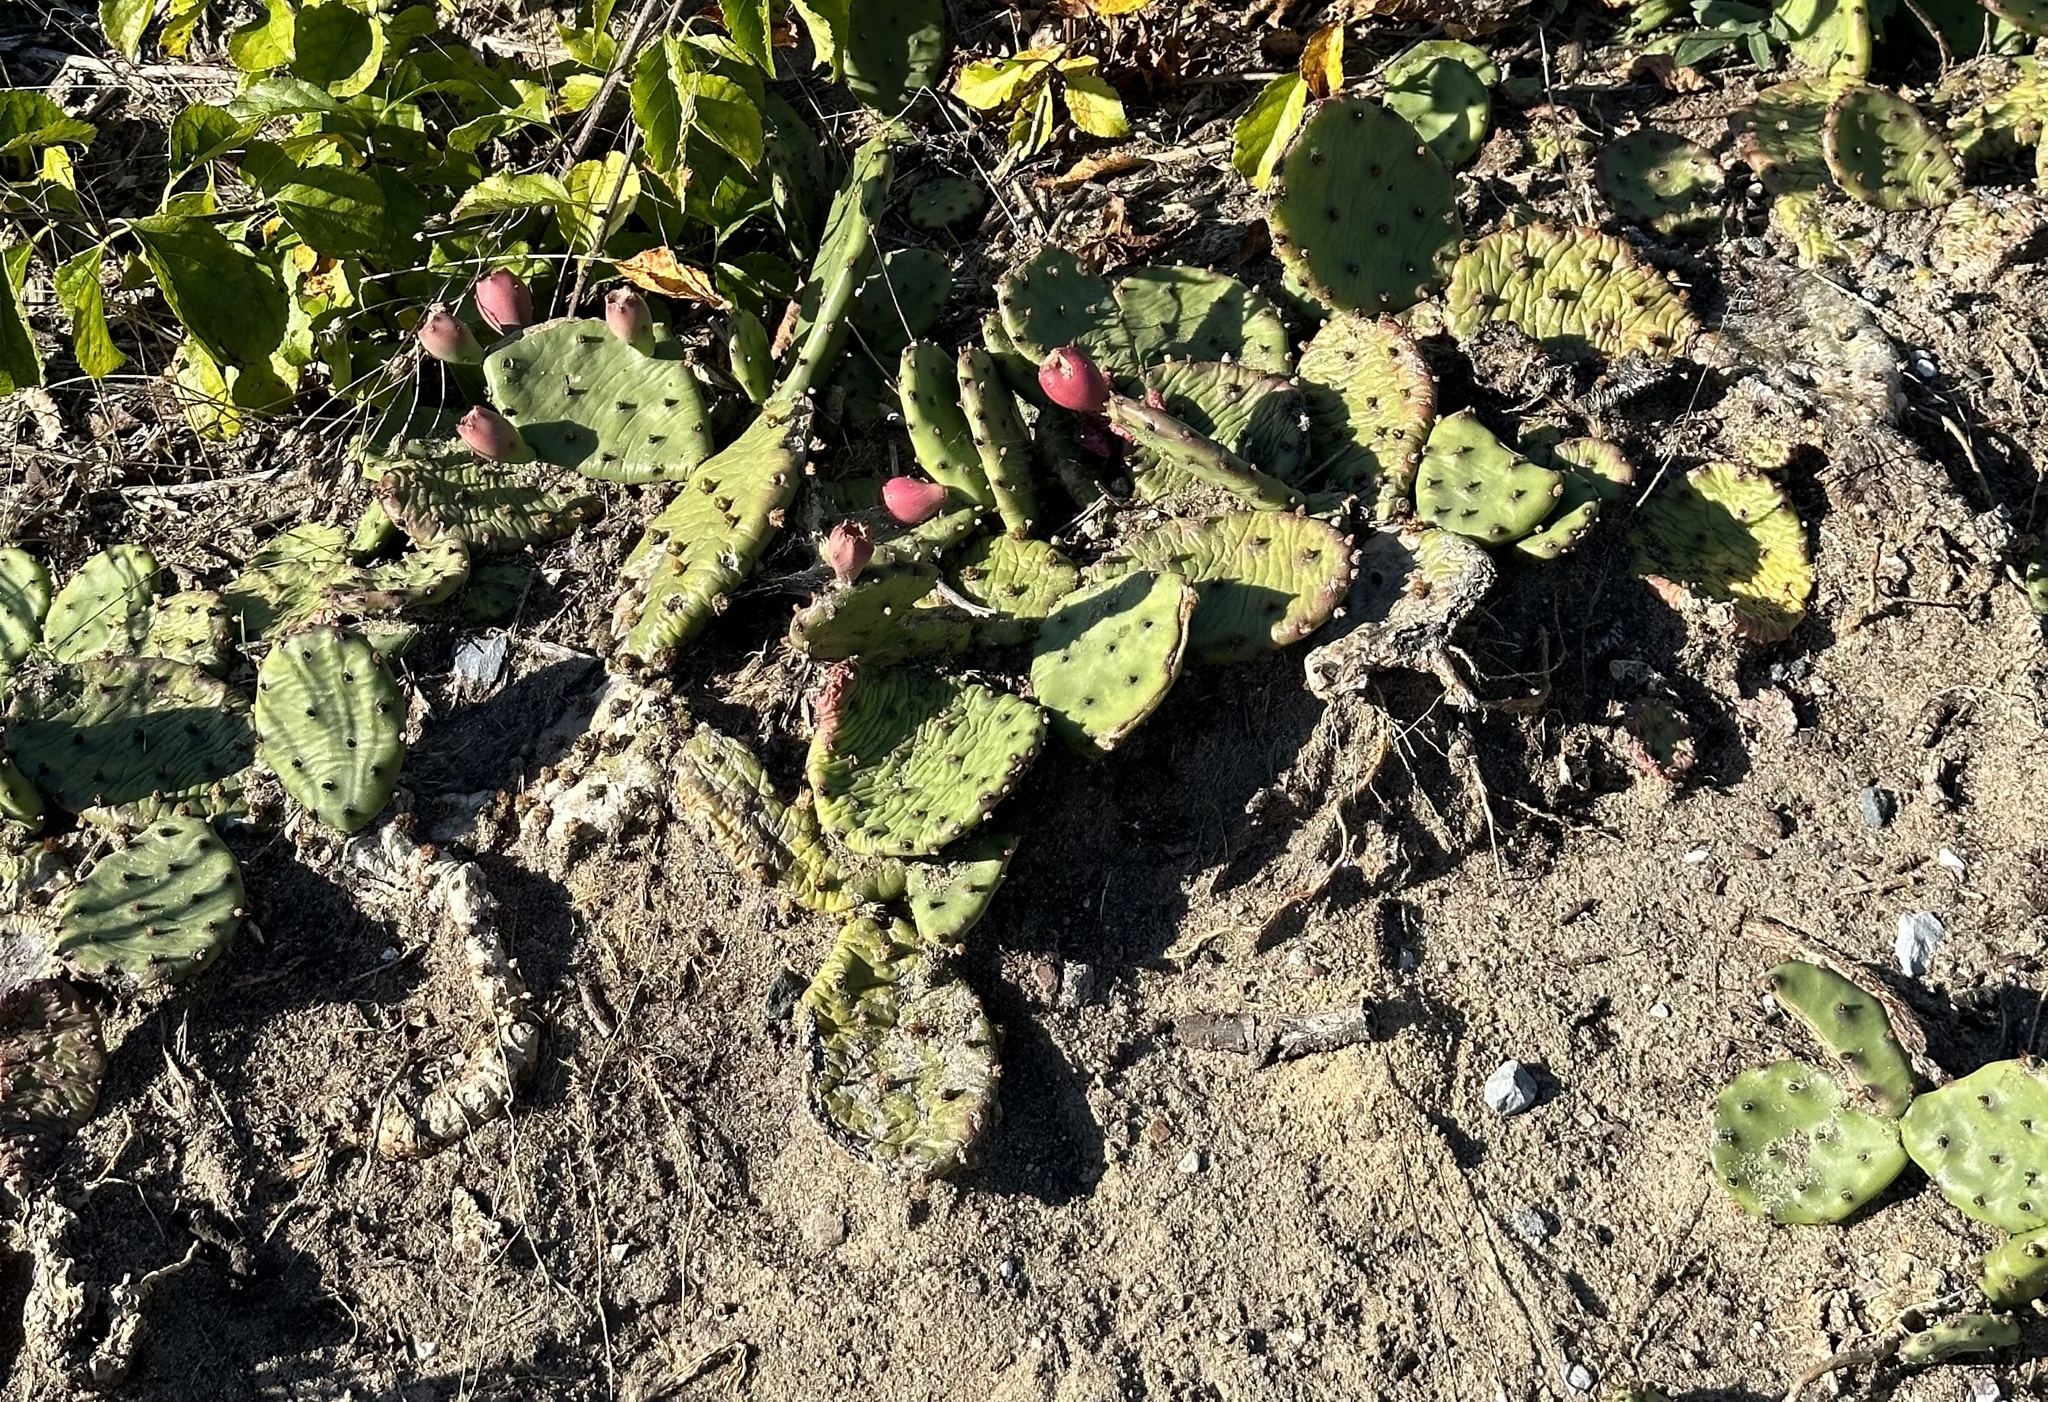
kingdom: Plantae
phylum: Tracheophyta
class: Magnoliopsida
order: Caryophyllales
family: Cactaceae
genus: Opuntia
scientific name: Opuntia humifusa
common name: Eastern prickly-pear
